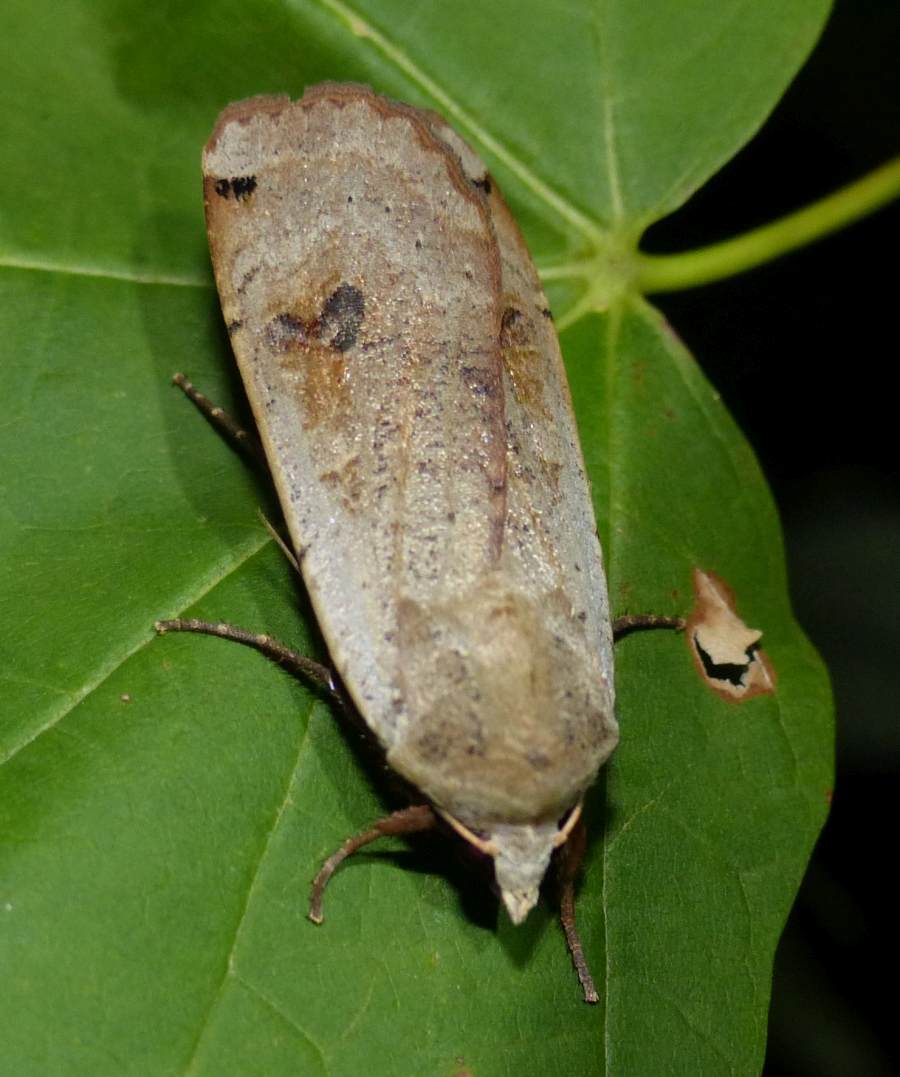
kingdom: Animalia
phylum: Arthropoda
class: Insecta
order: Lepidoptera
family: Noctuidae
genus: Noctua
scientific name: Noctua pronuba
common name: Large yellow underwing
